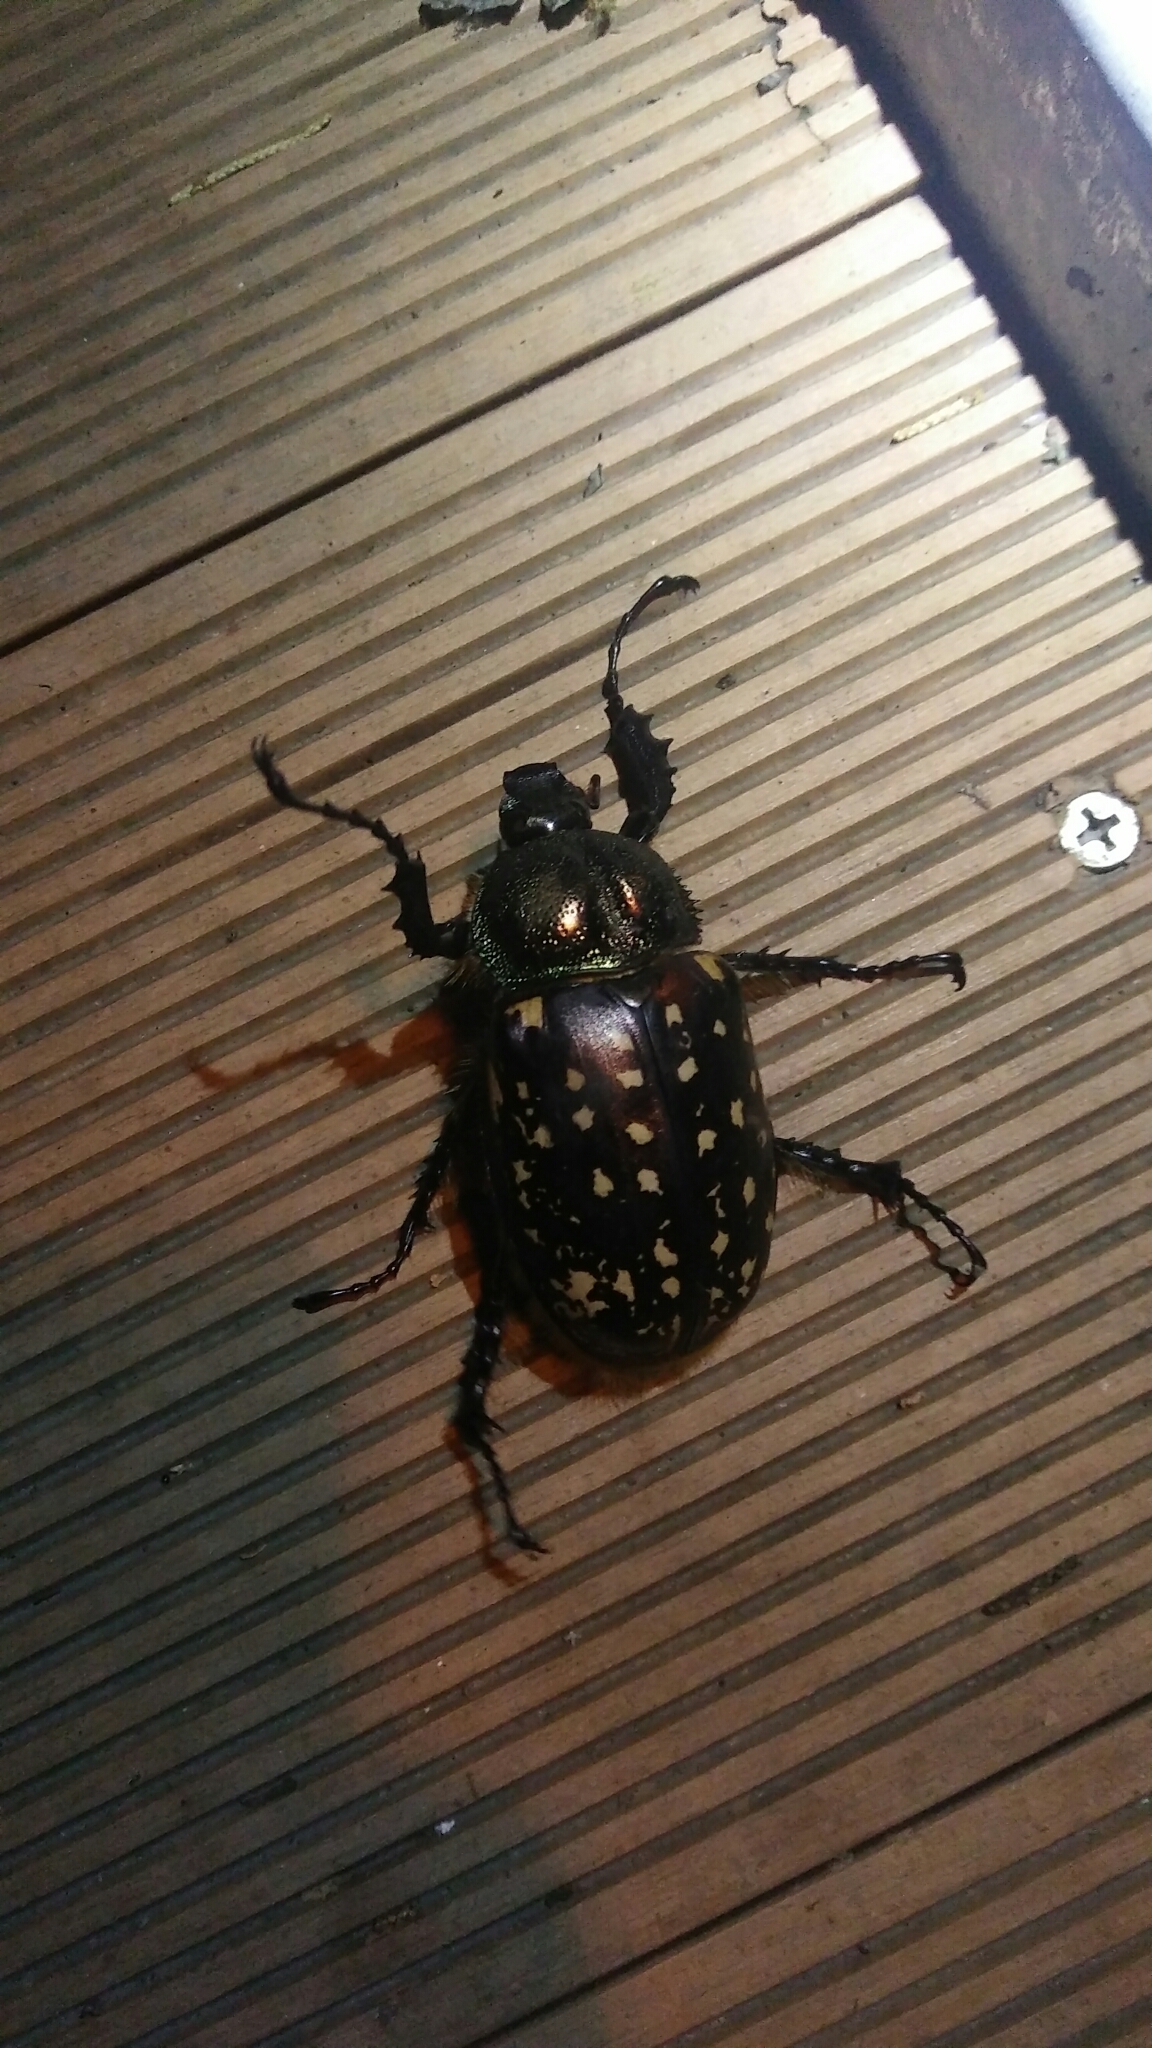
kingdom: Animalia
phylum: Arthropoda
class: Insecta
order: Coleoptera
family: Scarabaeidae
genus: Cheirotonus
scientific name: Cheirotonus formosanus
